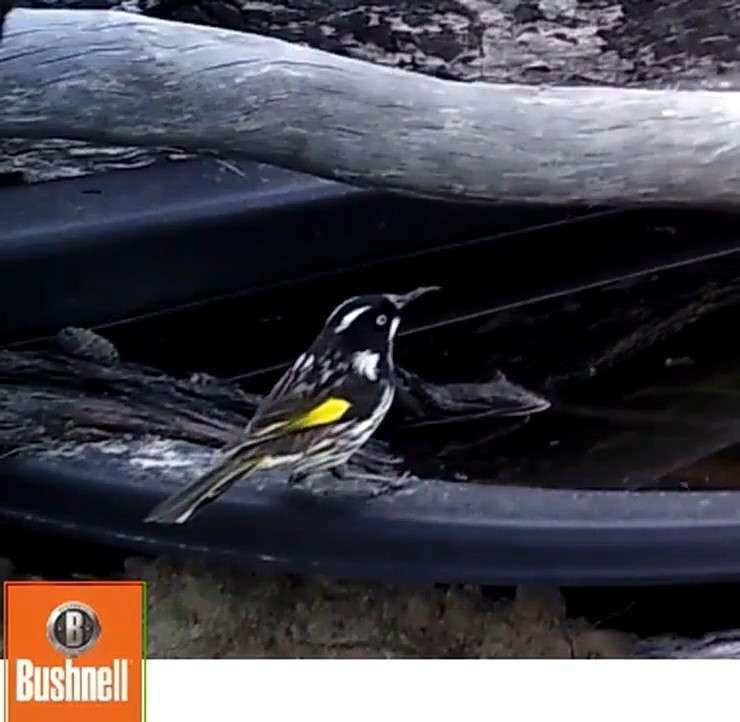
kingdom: Animalia
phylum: Chordata
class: Aves
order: Passeriformes
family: Meliphagidae
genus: Phylidonyris
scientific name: Phylidonyris novaehollandiae
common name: New holland honeyeater
